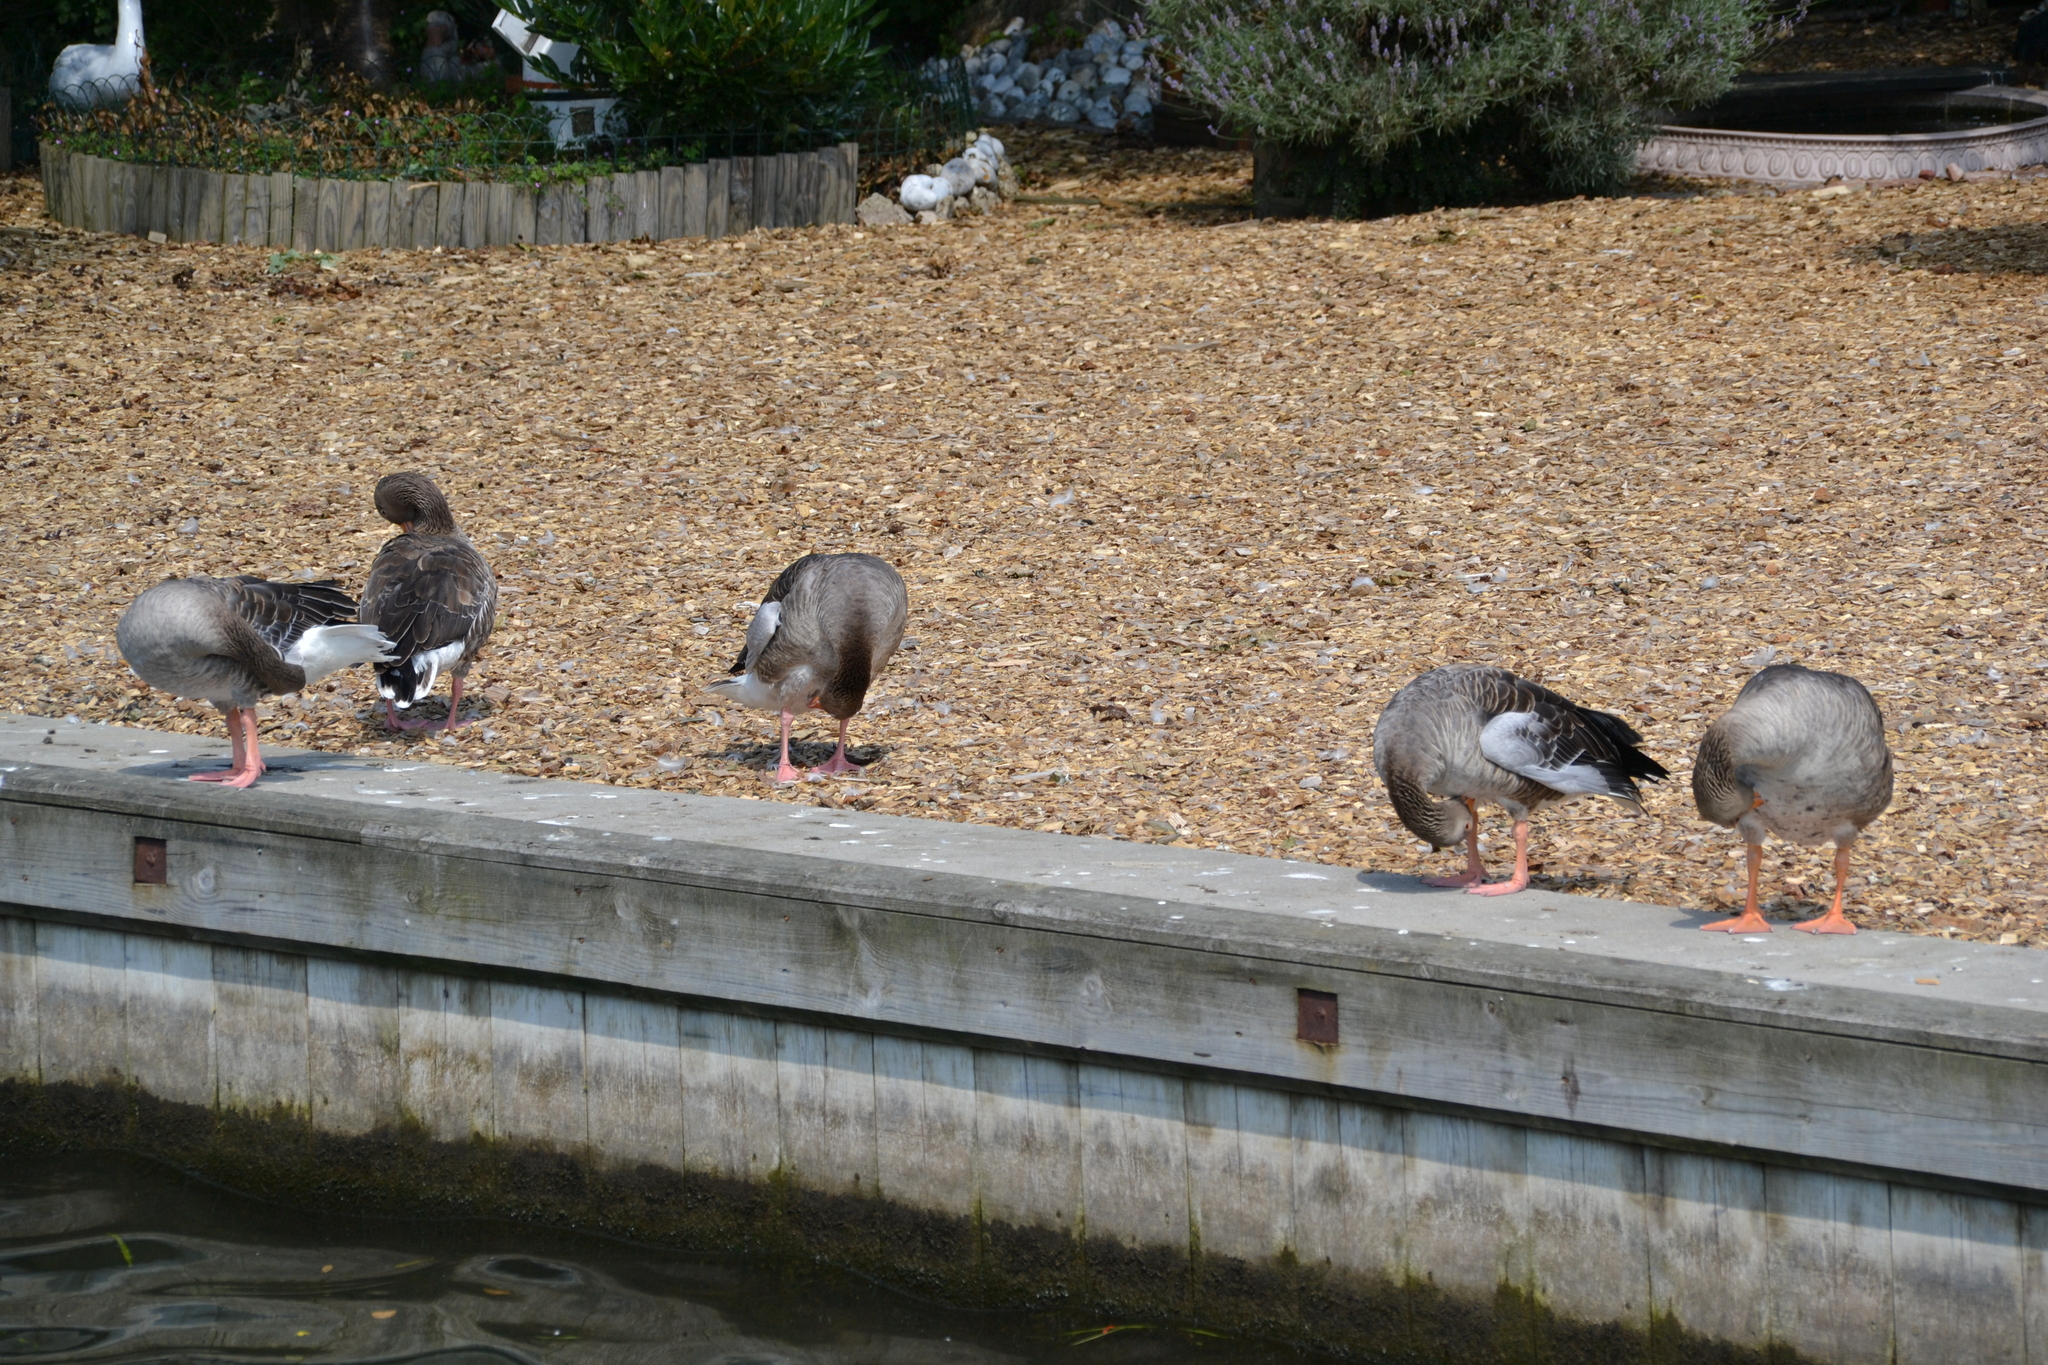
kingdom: Animalia
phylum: Chordata
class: Aves
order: Anseriformes
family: Anatidae
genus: Anser
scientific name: Anser anser
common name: Greylag goose
